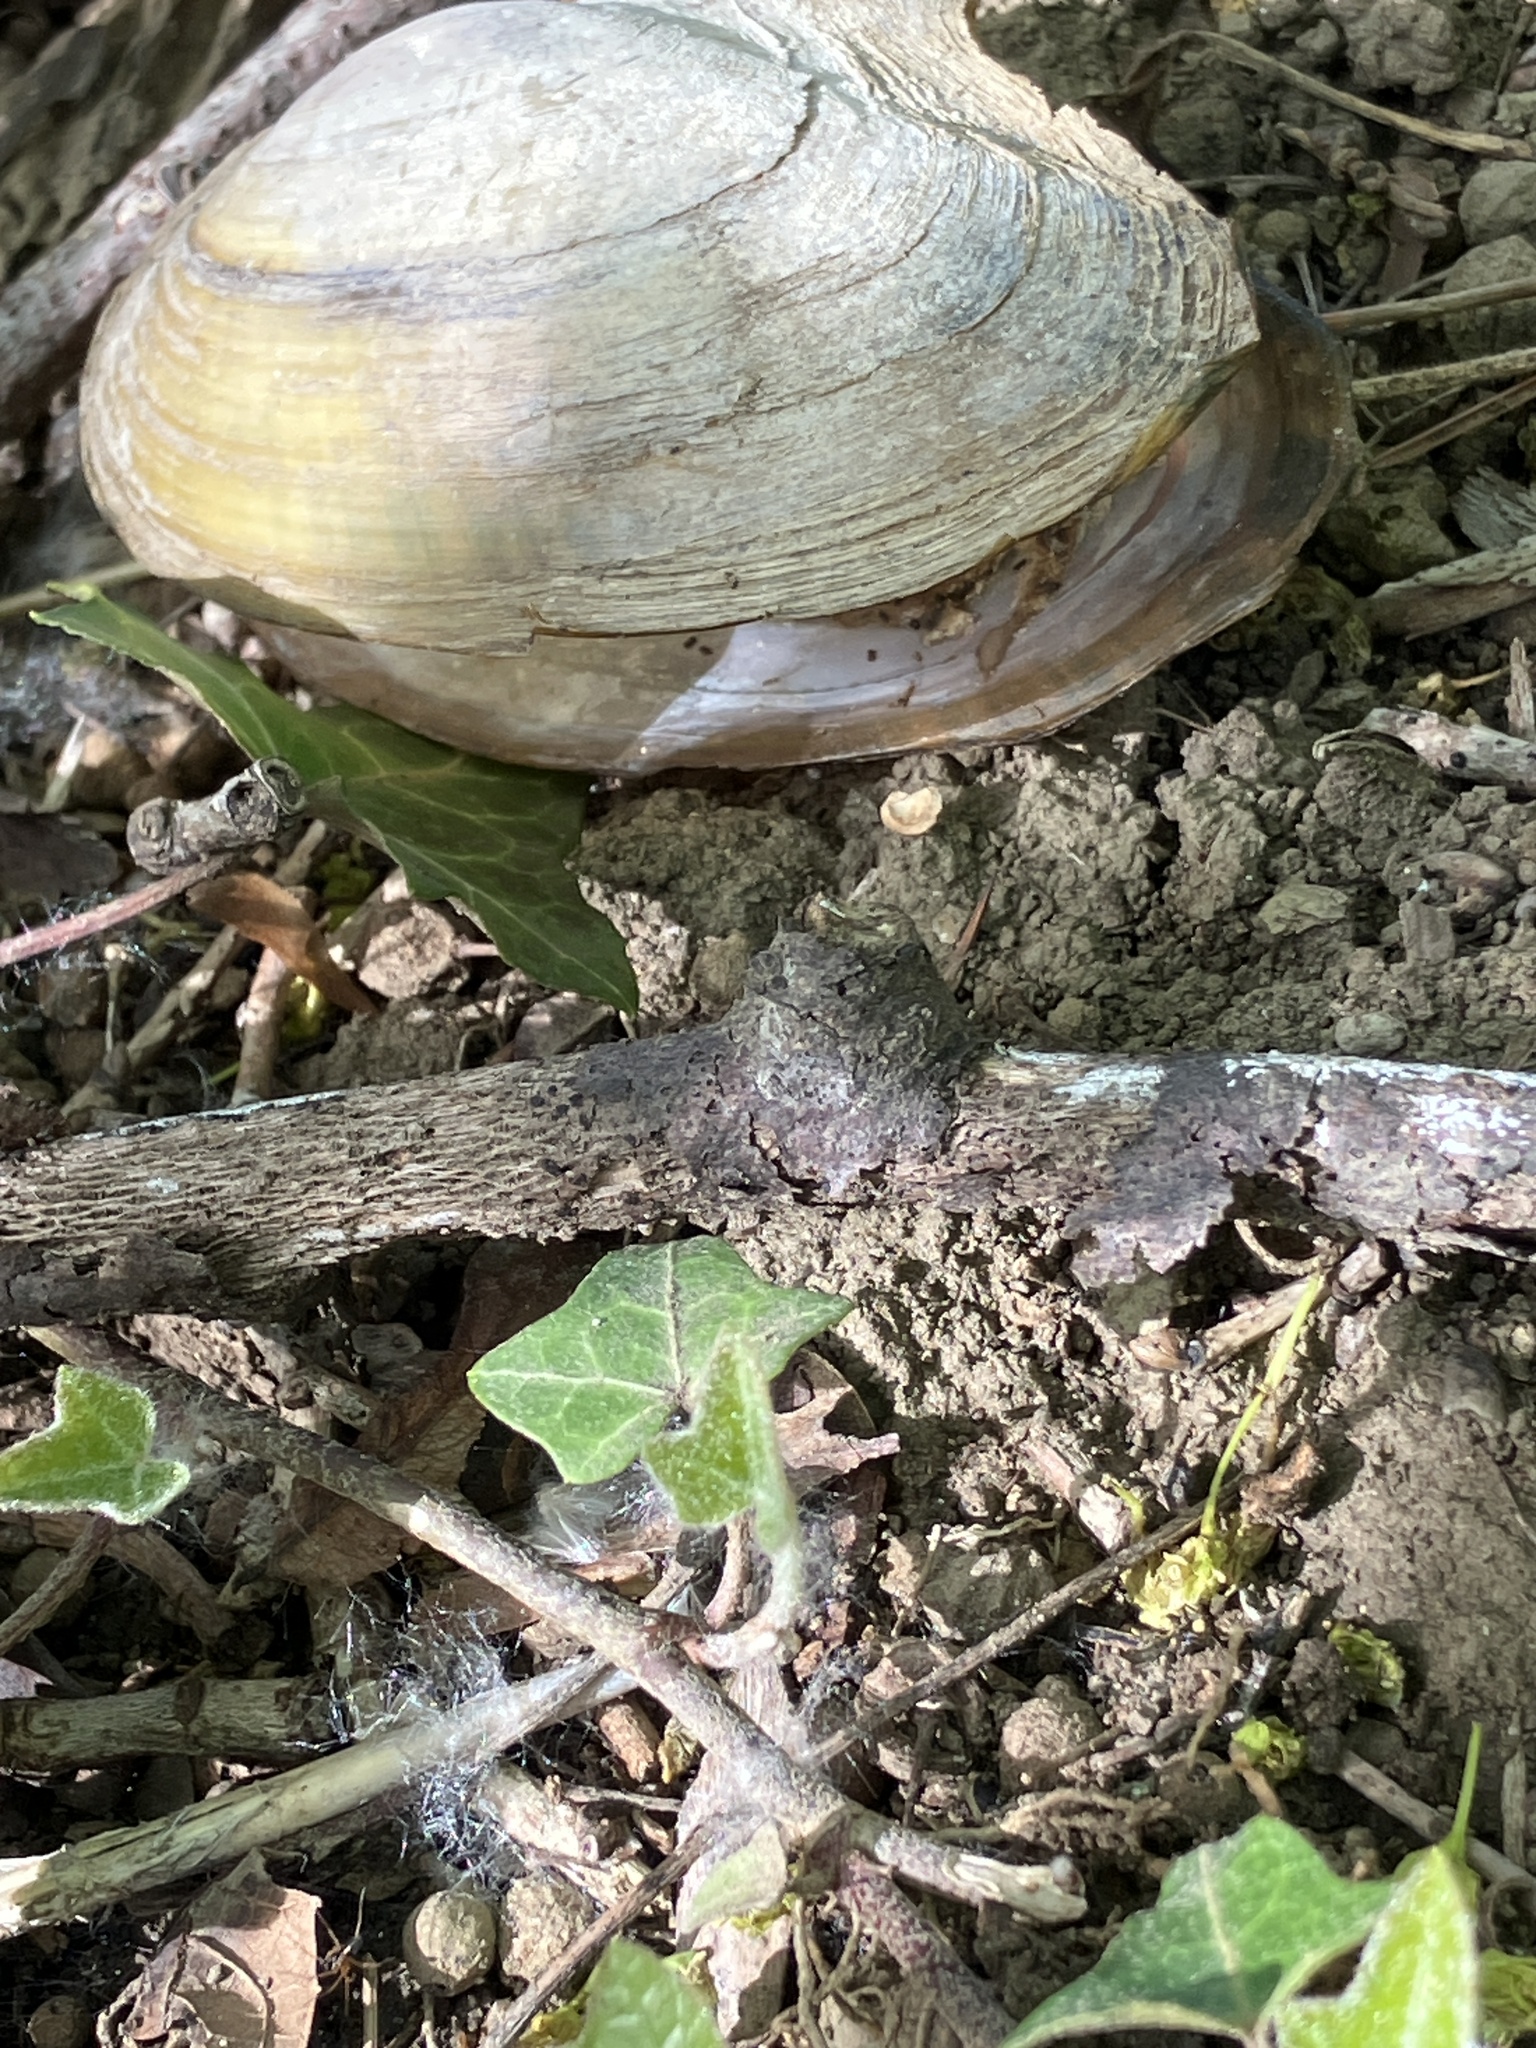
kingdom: Animalia
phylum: Mollusca
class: Bivalvia
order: Unionida
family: Unionidae
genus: Anodonta
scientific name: Anodonta anatina
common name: Duck mussel
